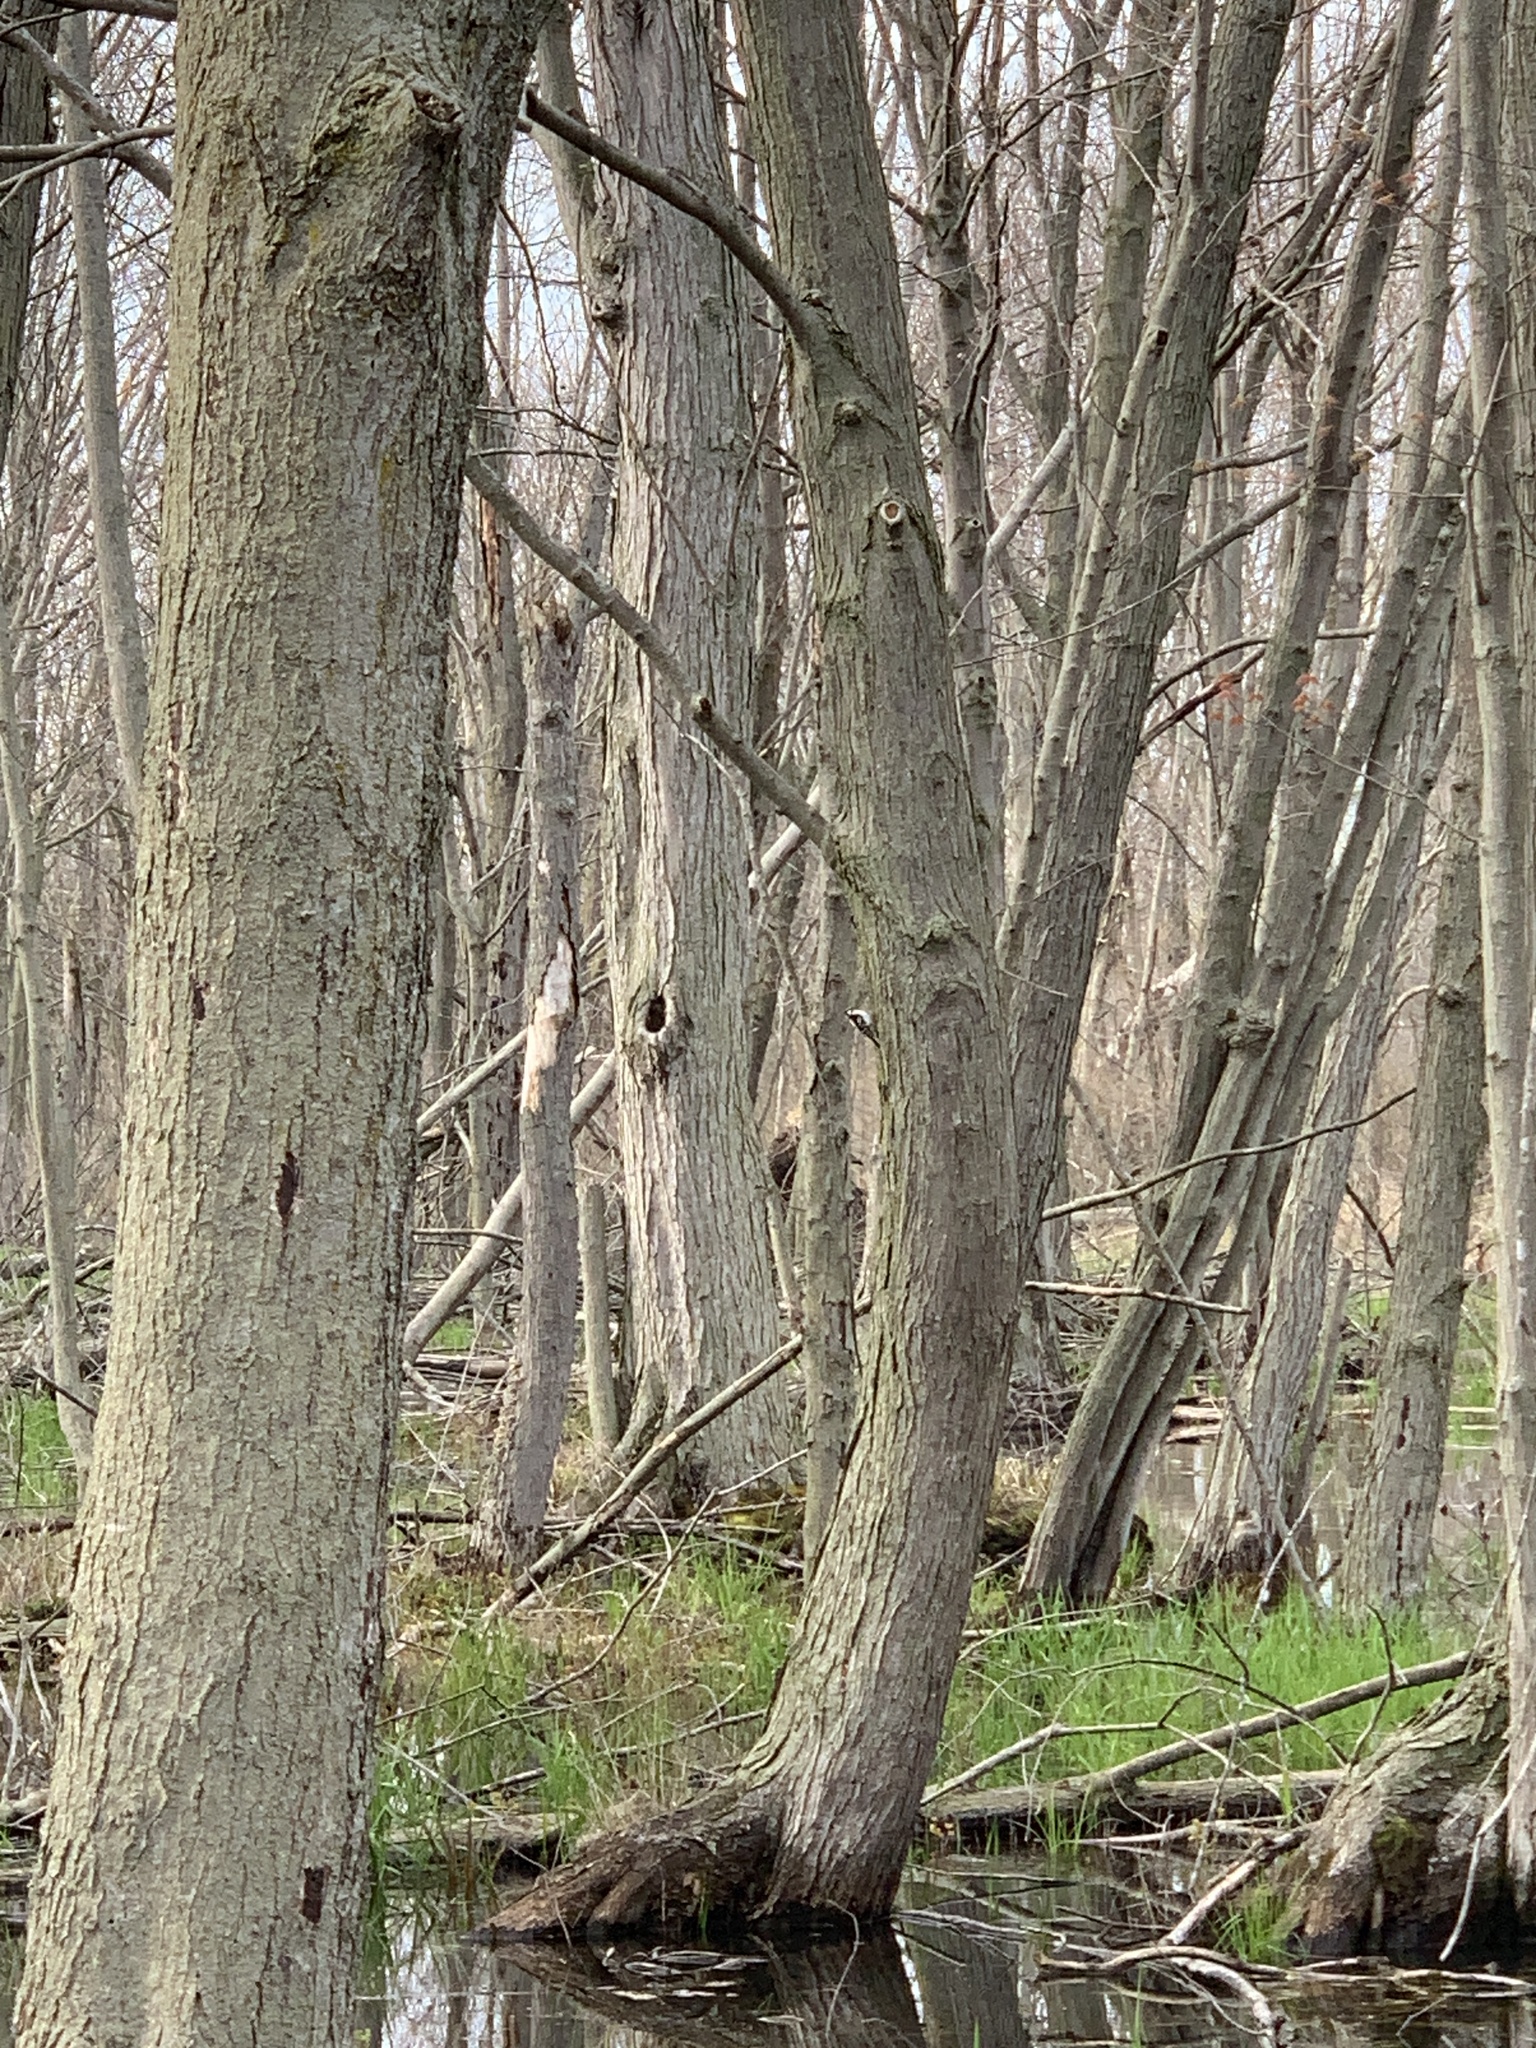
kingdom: Animalia
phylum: Chordata
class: Aves
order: Piciformes
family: Picidae
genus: Dryobates
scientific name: Dryobates pubescens
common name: Downy woodpecker
